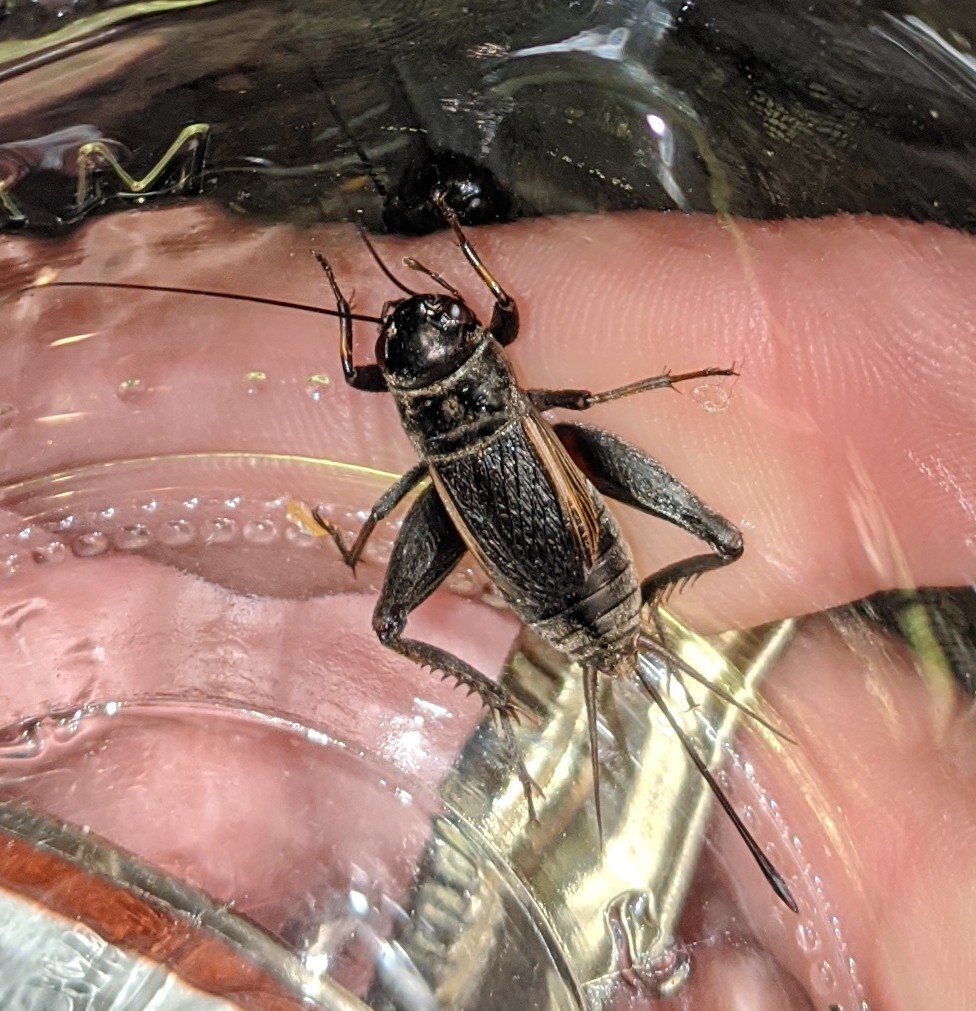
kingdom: Animalia
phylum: Arthropoda
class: Insecta
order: Orthoptera
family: Gryllidae
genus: Gryllus
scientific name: Gryllus pennsylvanicus
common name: Fall field cricket
